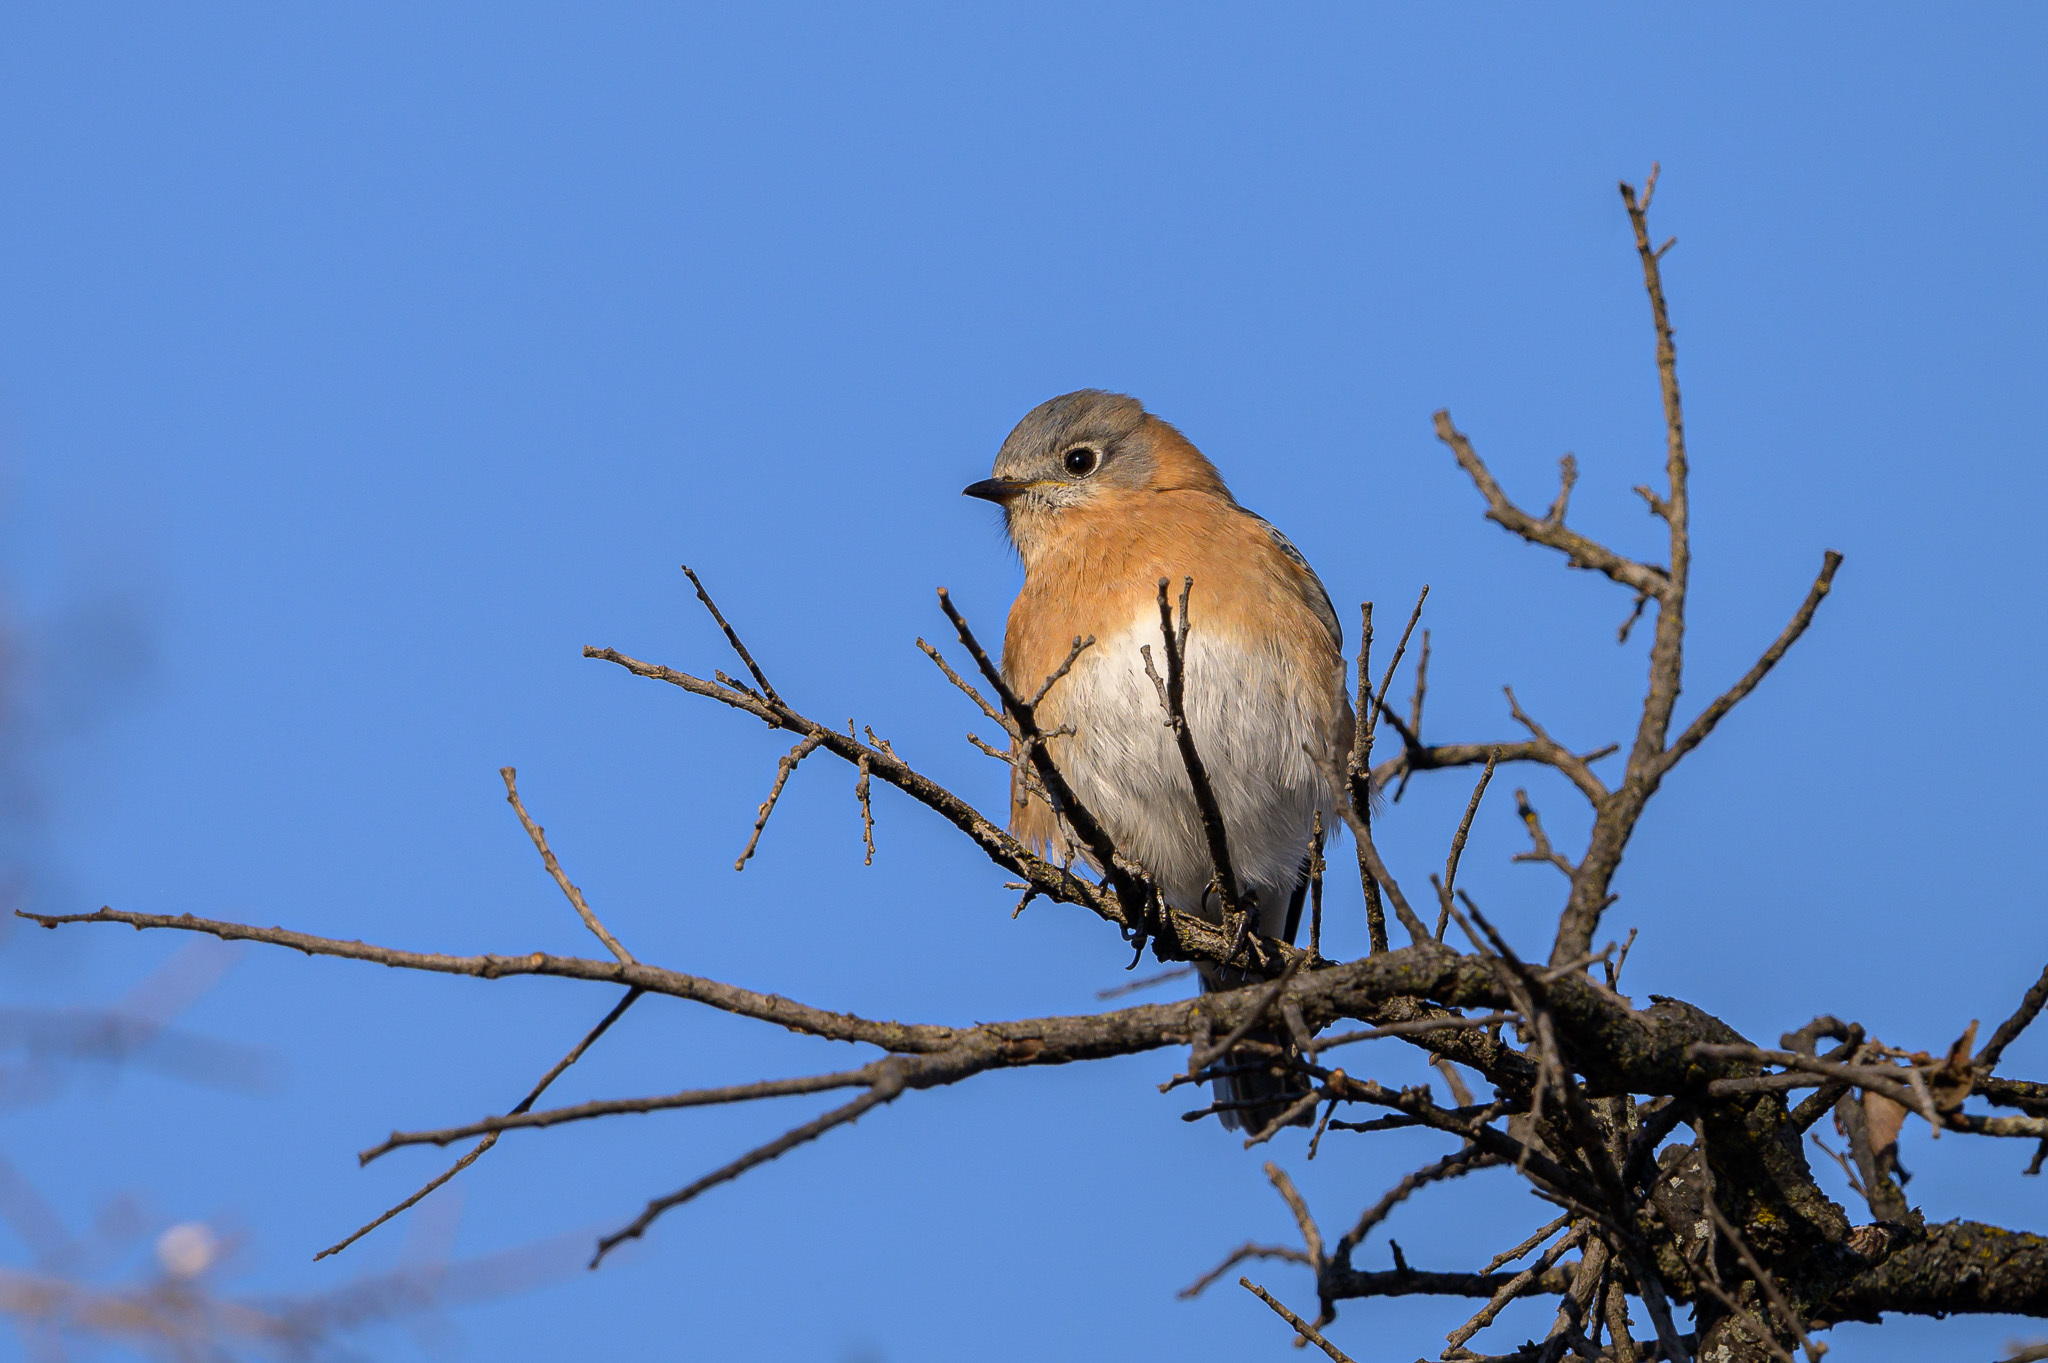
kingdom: Animalia
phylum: Chordata
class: Aves
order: Passeriformes
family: Turdidae
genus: Sialia
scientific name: Sialia sialis
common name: Eastern bluebird
